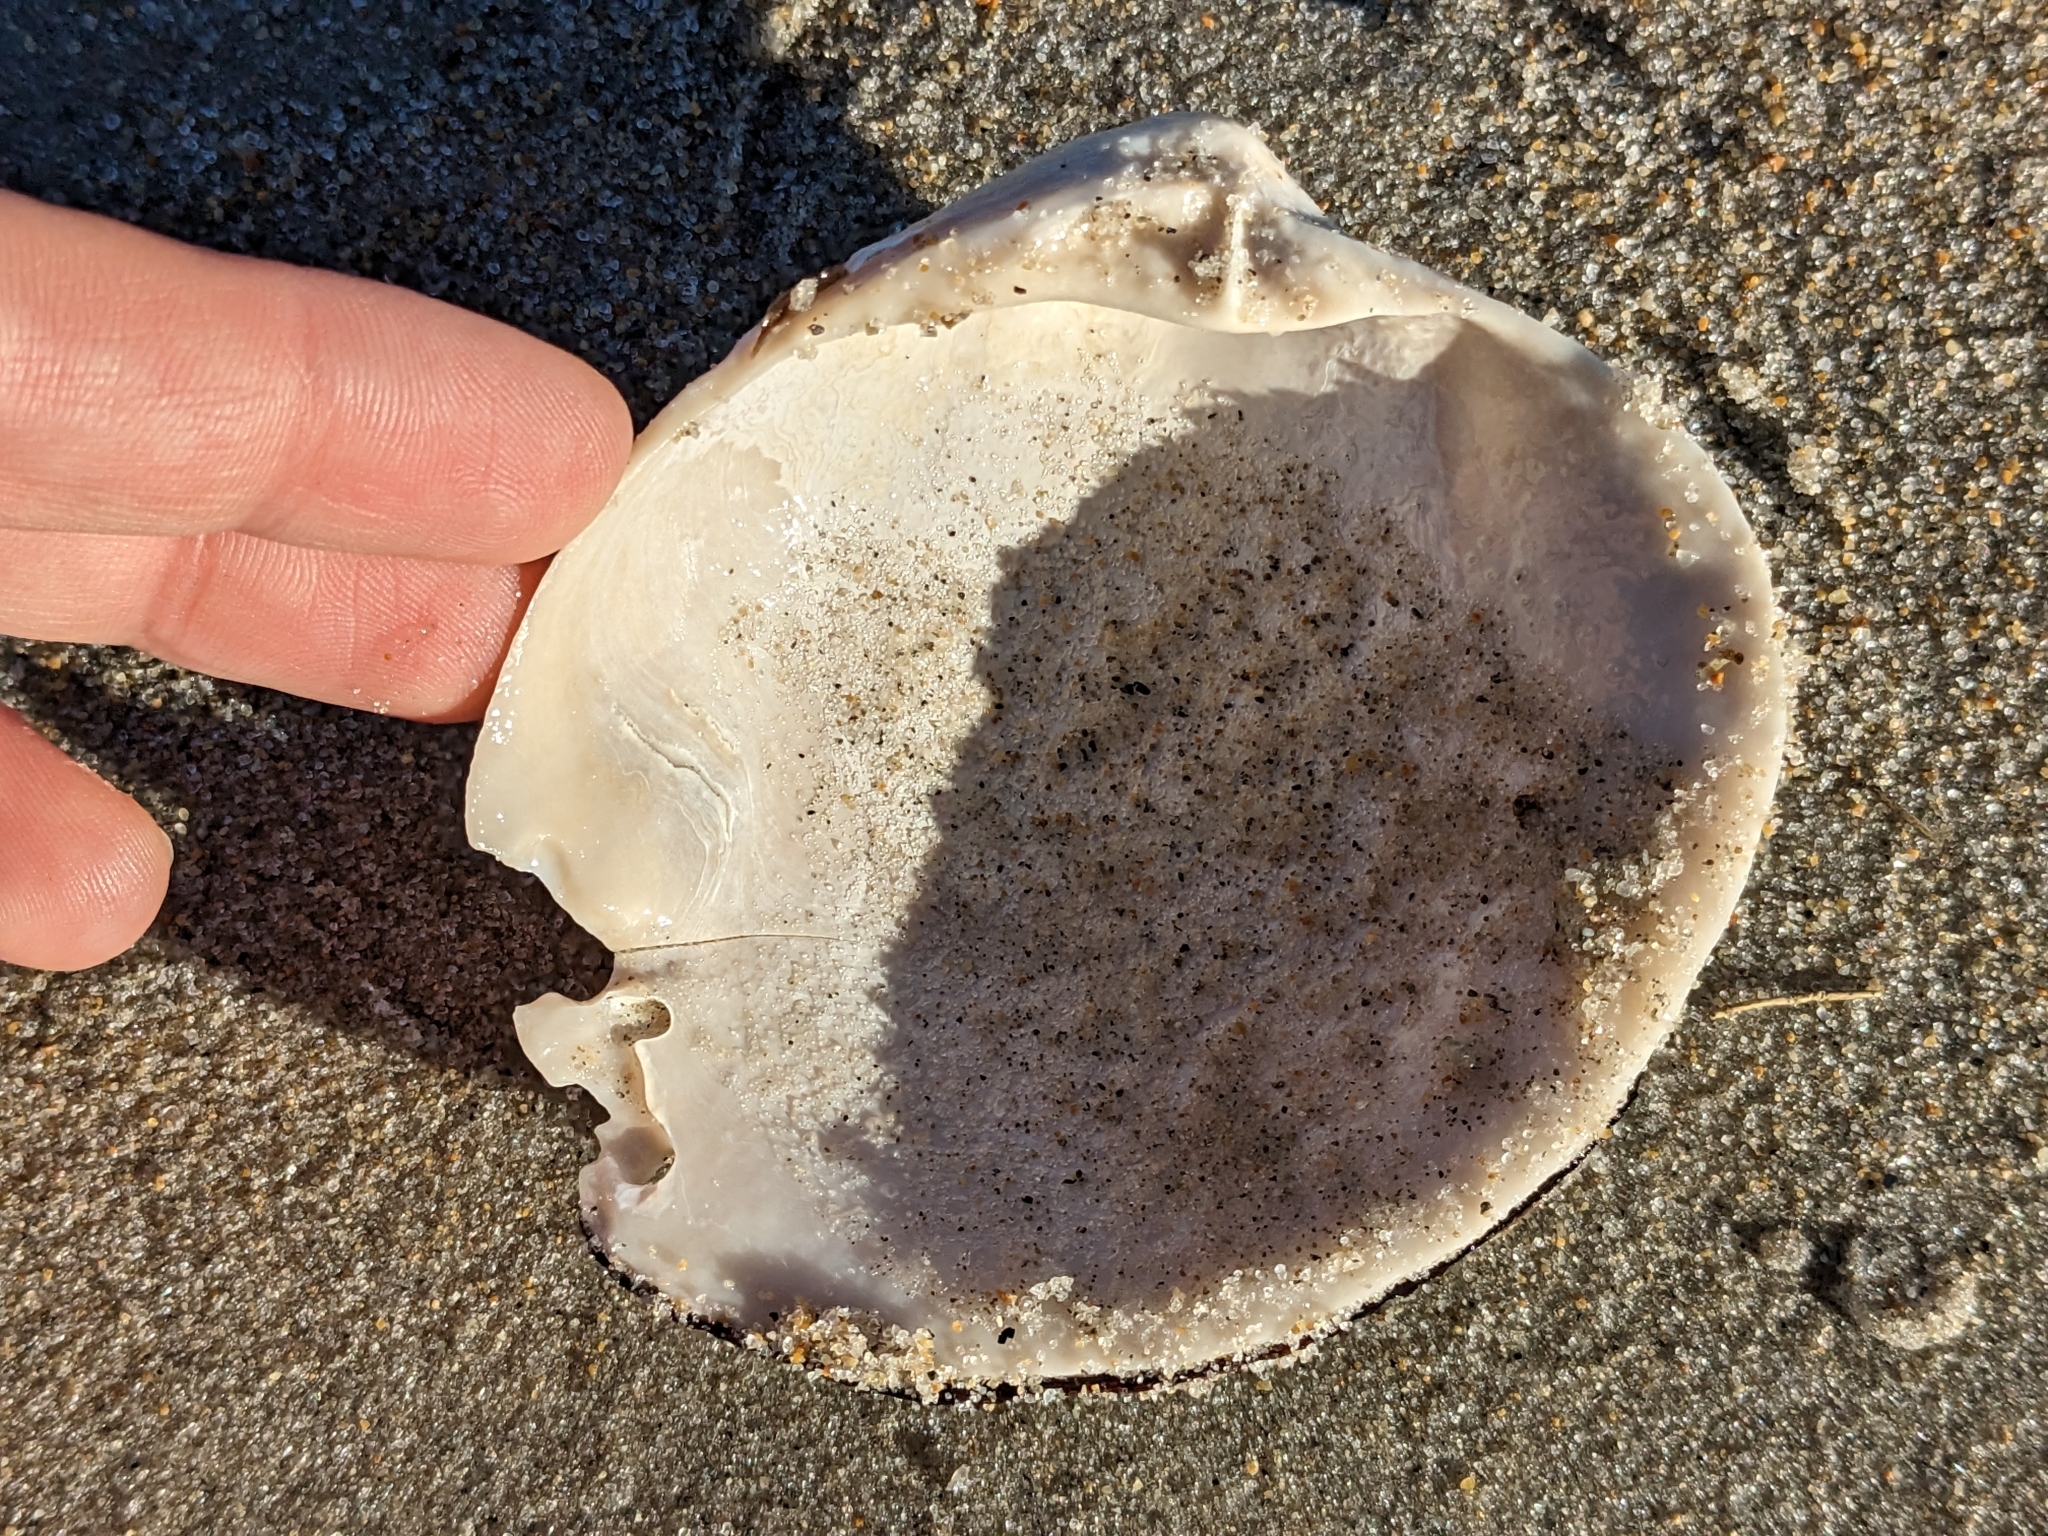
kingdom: Animalia
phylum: Mollusca
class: Bivalvia
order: Venerida
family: Arcticidae
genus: Arctica
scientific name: Arctica islandica
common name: Icelandic cyprine
